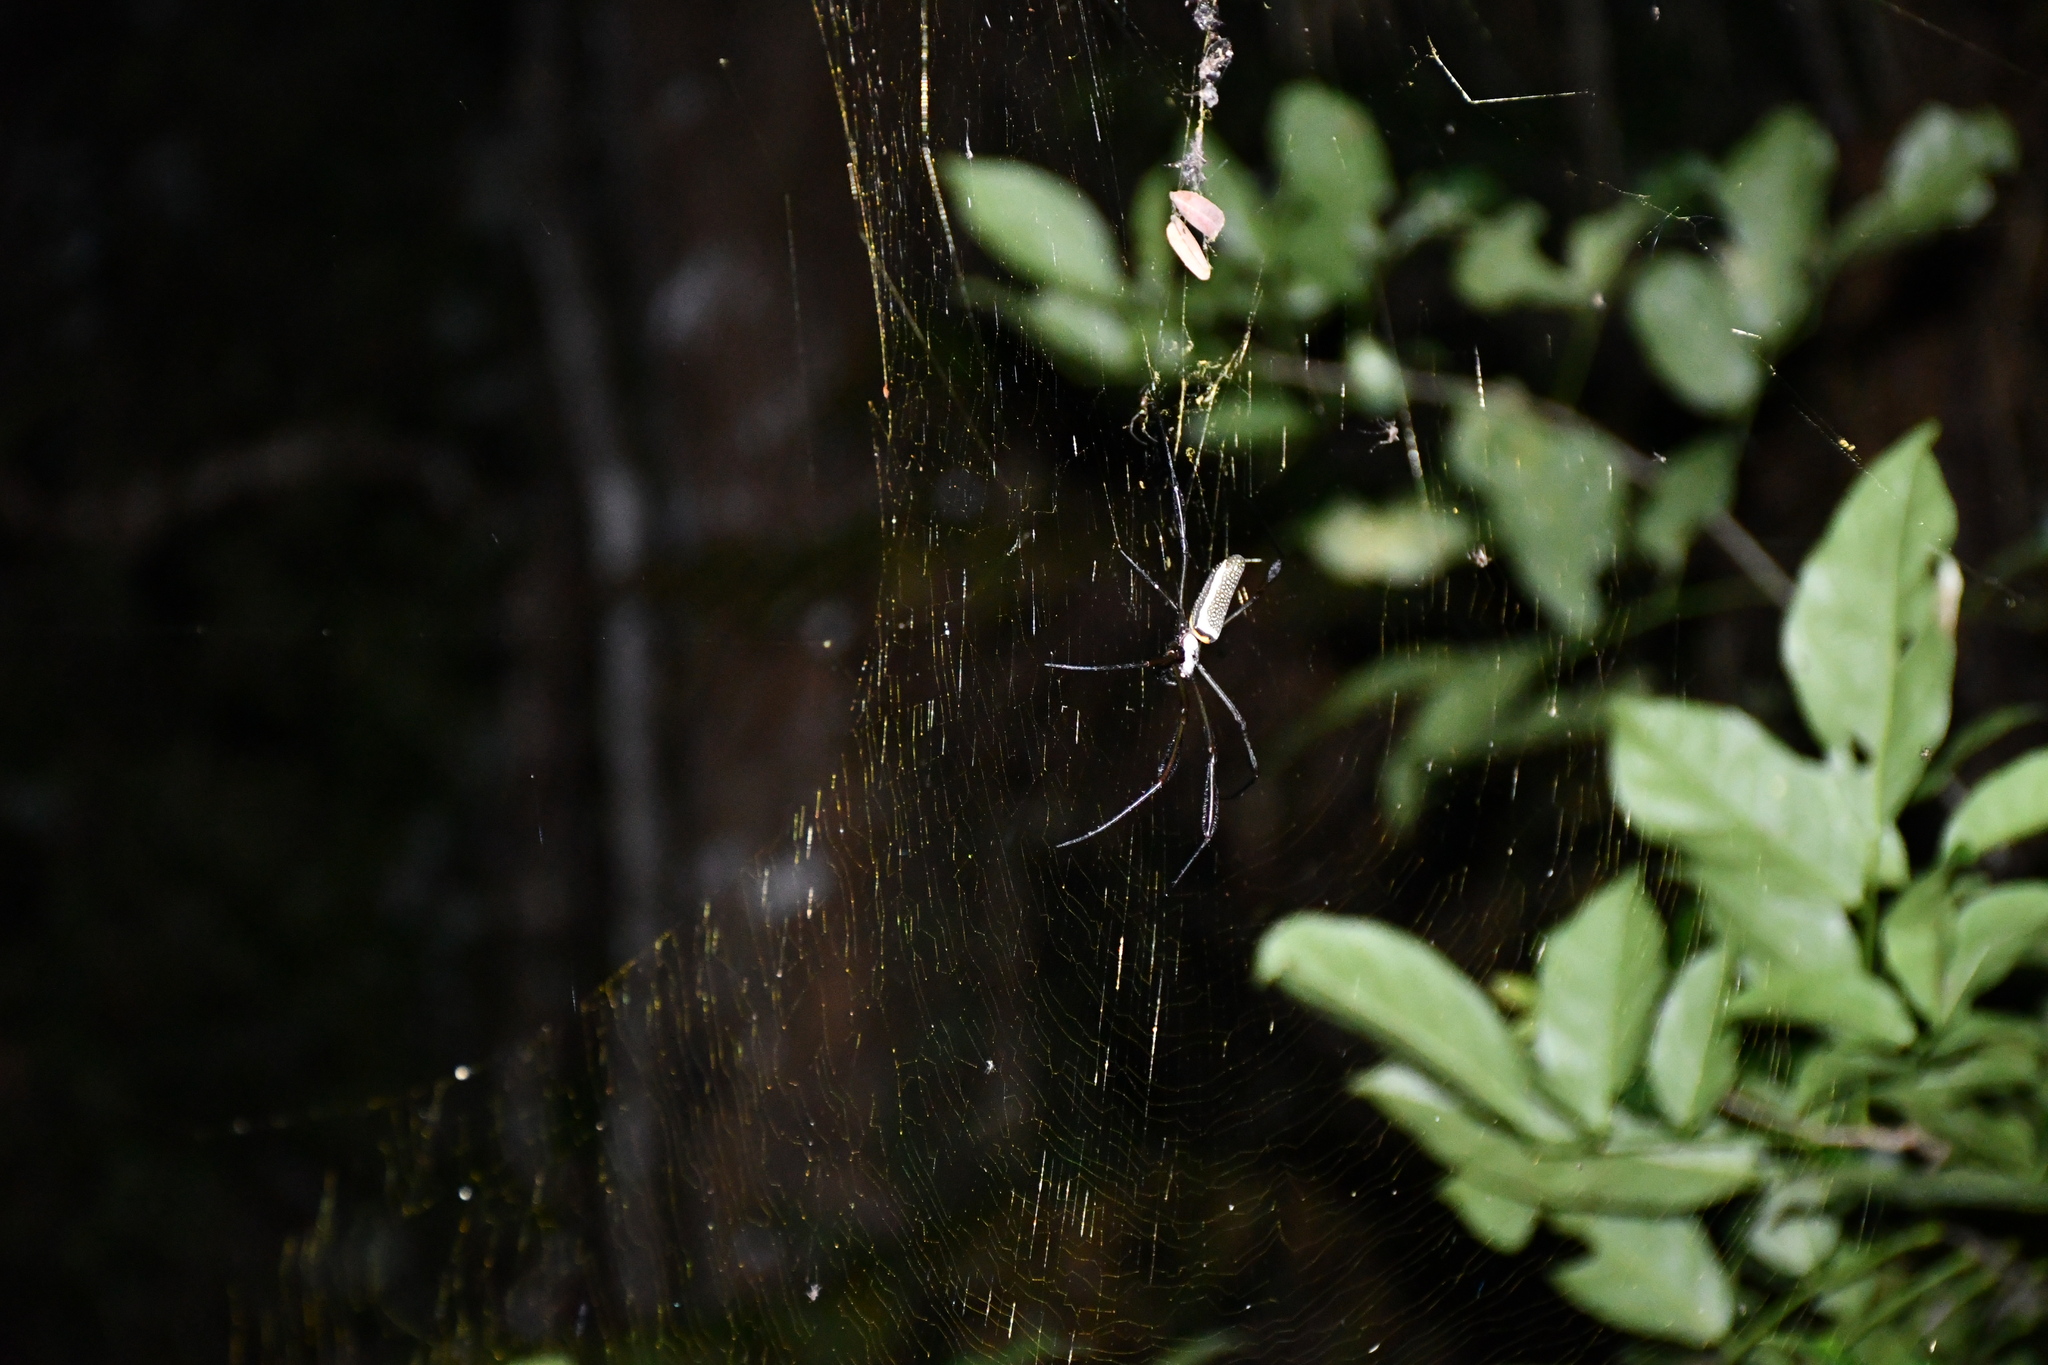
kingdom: Animalia
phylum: Arthropoda
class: Arachnida
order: Araneae
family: Araneidae
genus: Trichonephila
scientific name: Trichonephila clavipes
